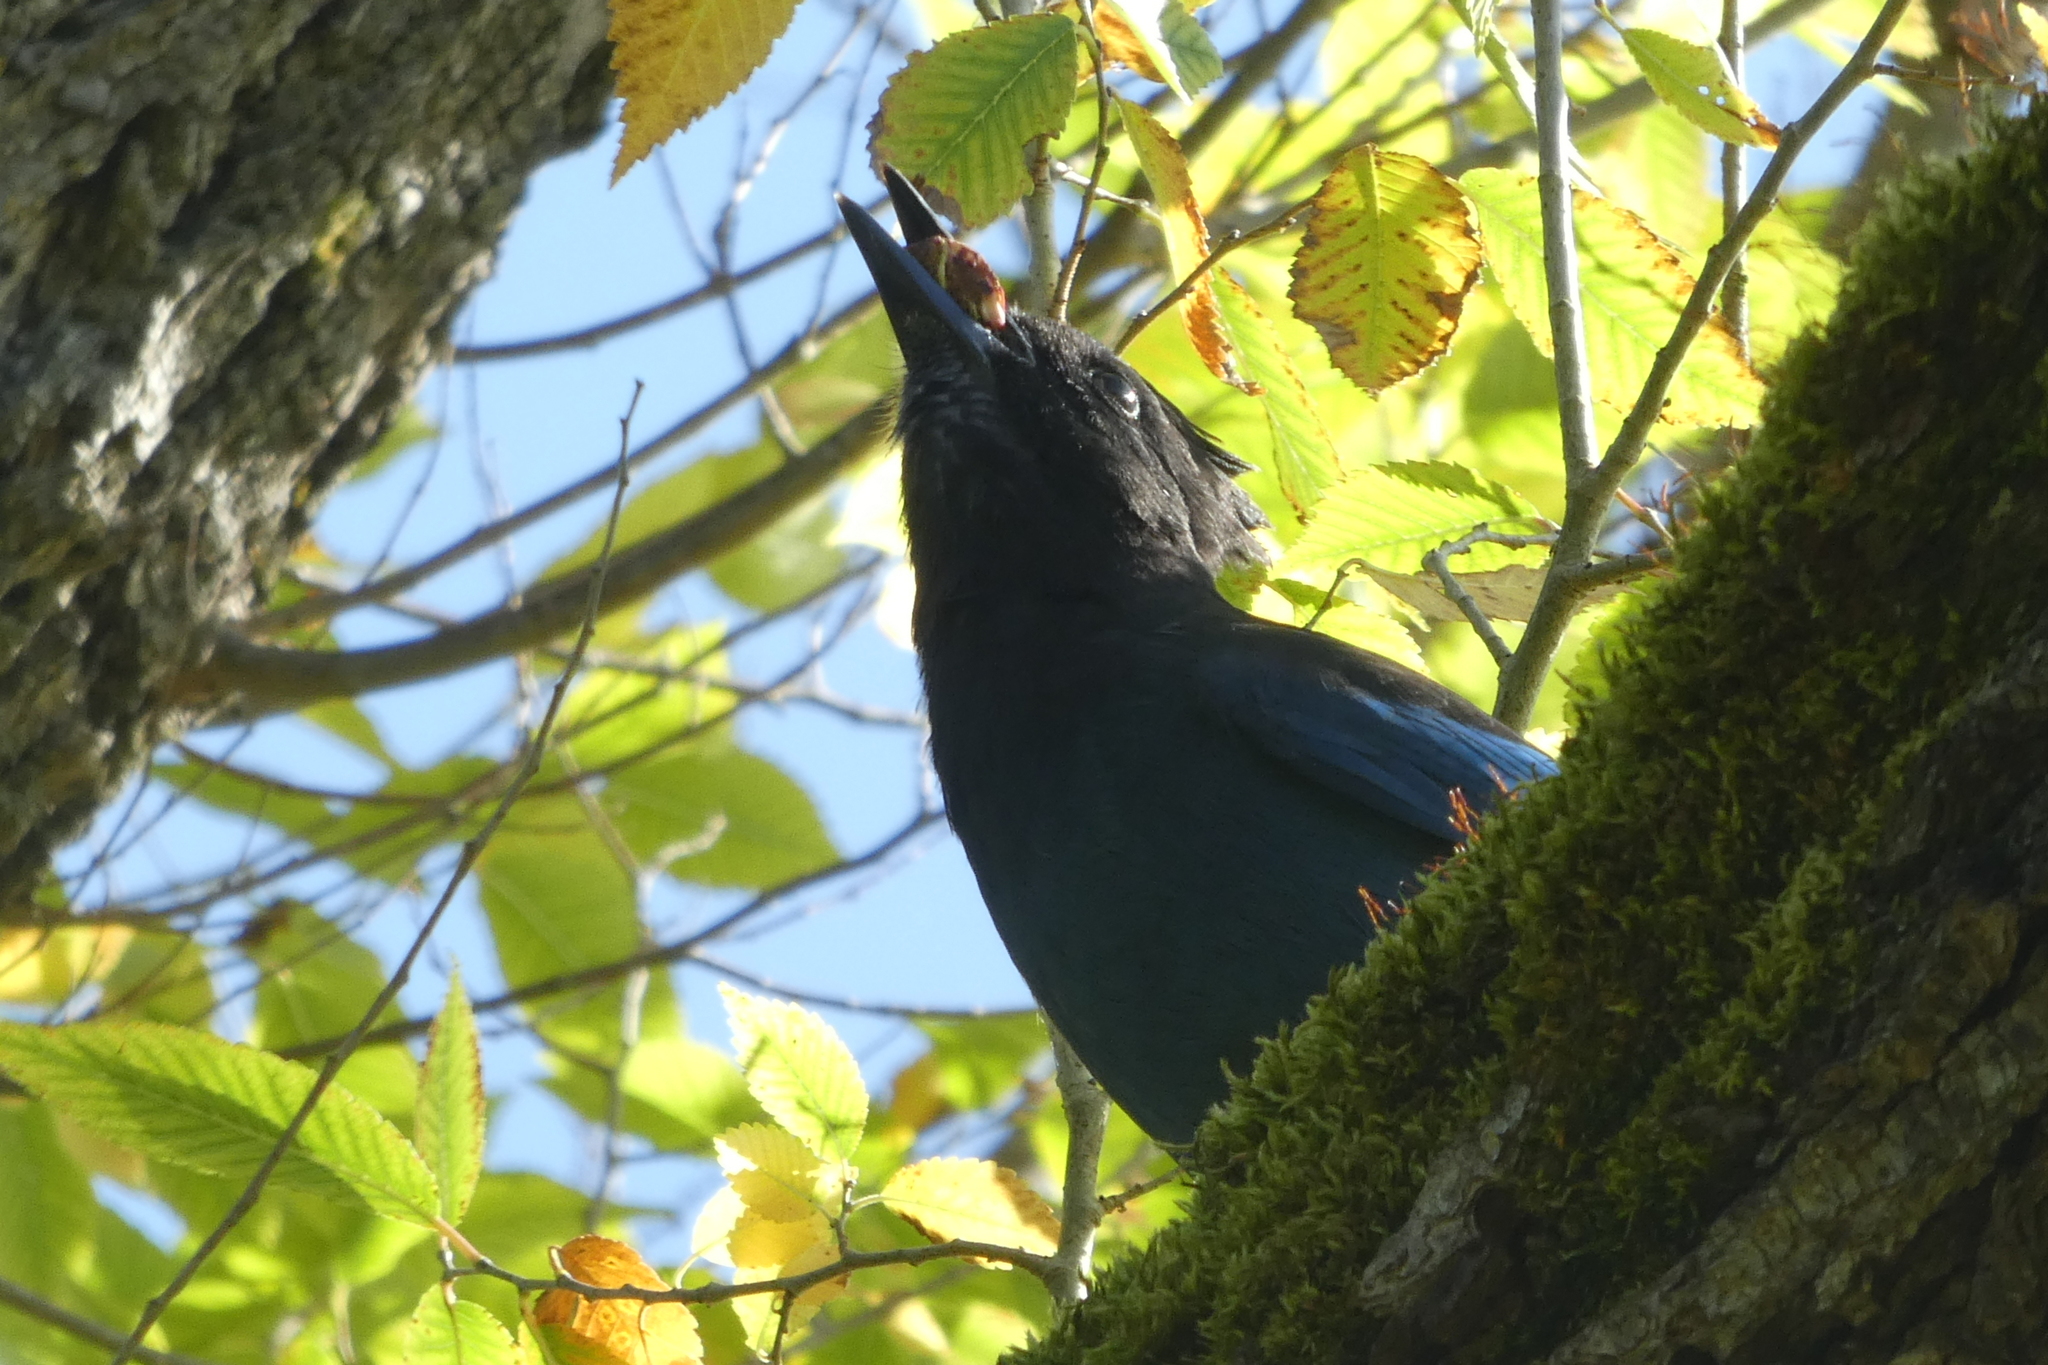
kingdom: Animalia
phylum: Chordata
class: Aves
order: Passeriformes
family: Corvidae
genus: Cyanocitta
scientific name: Cyanocitta stelleri
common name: Steller's jay
